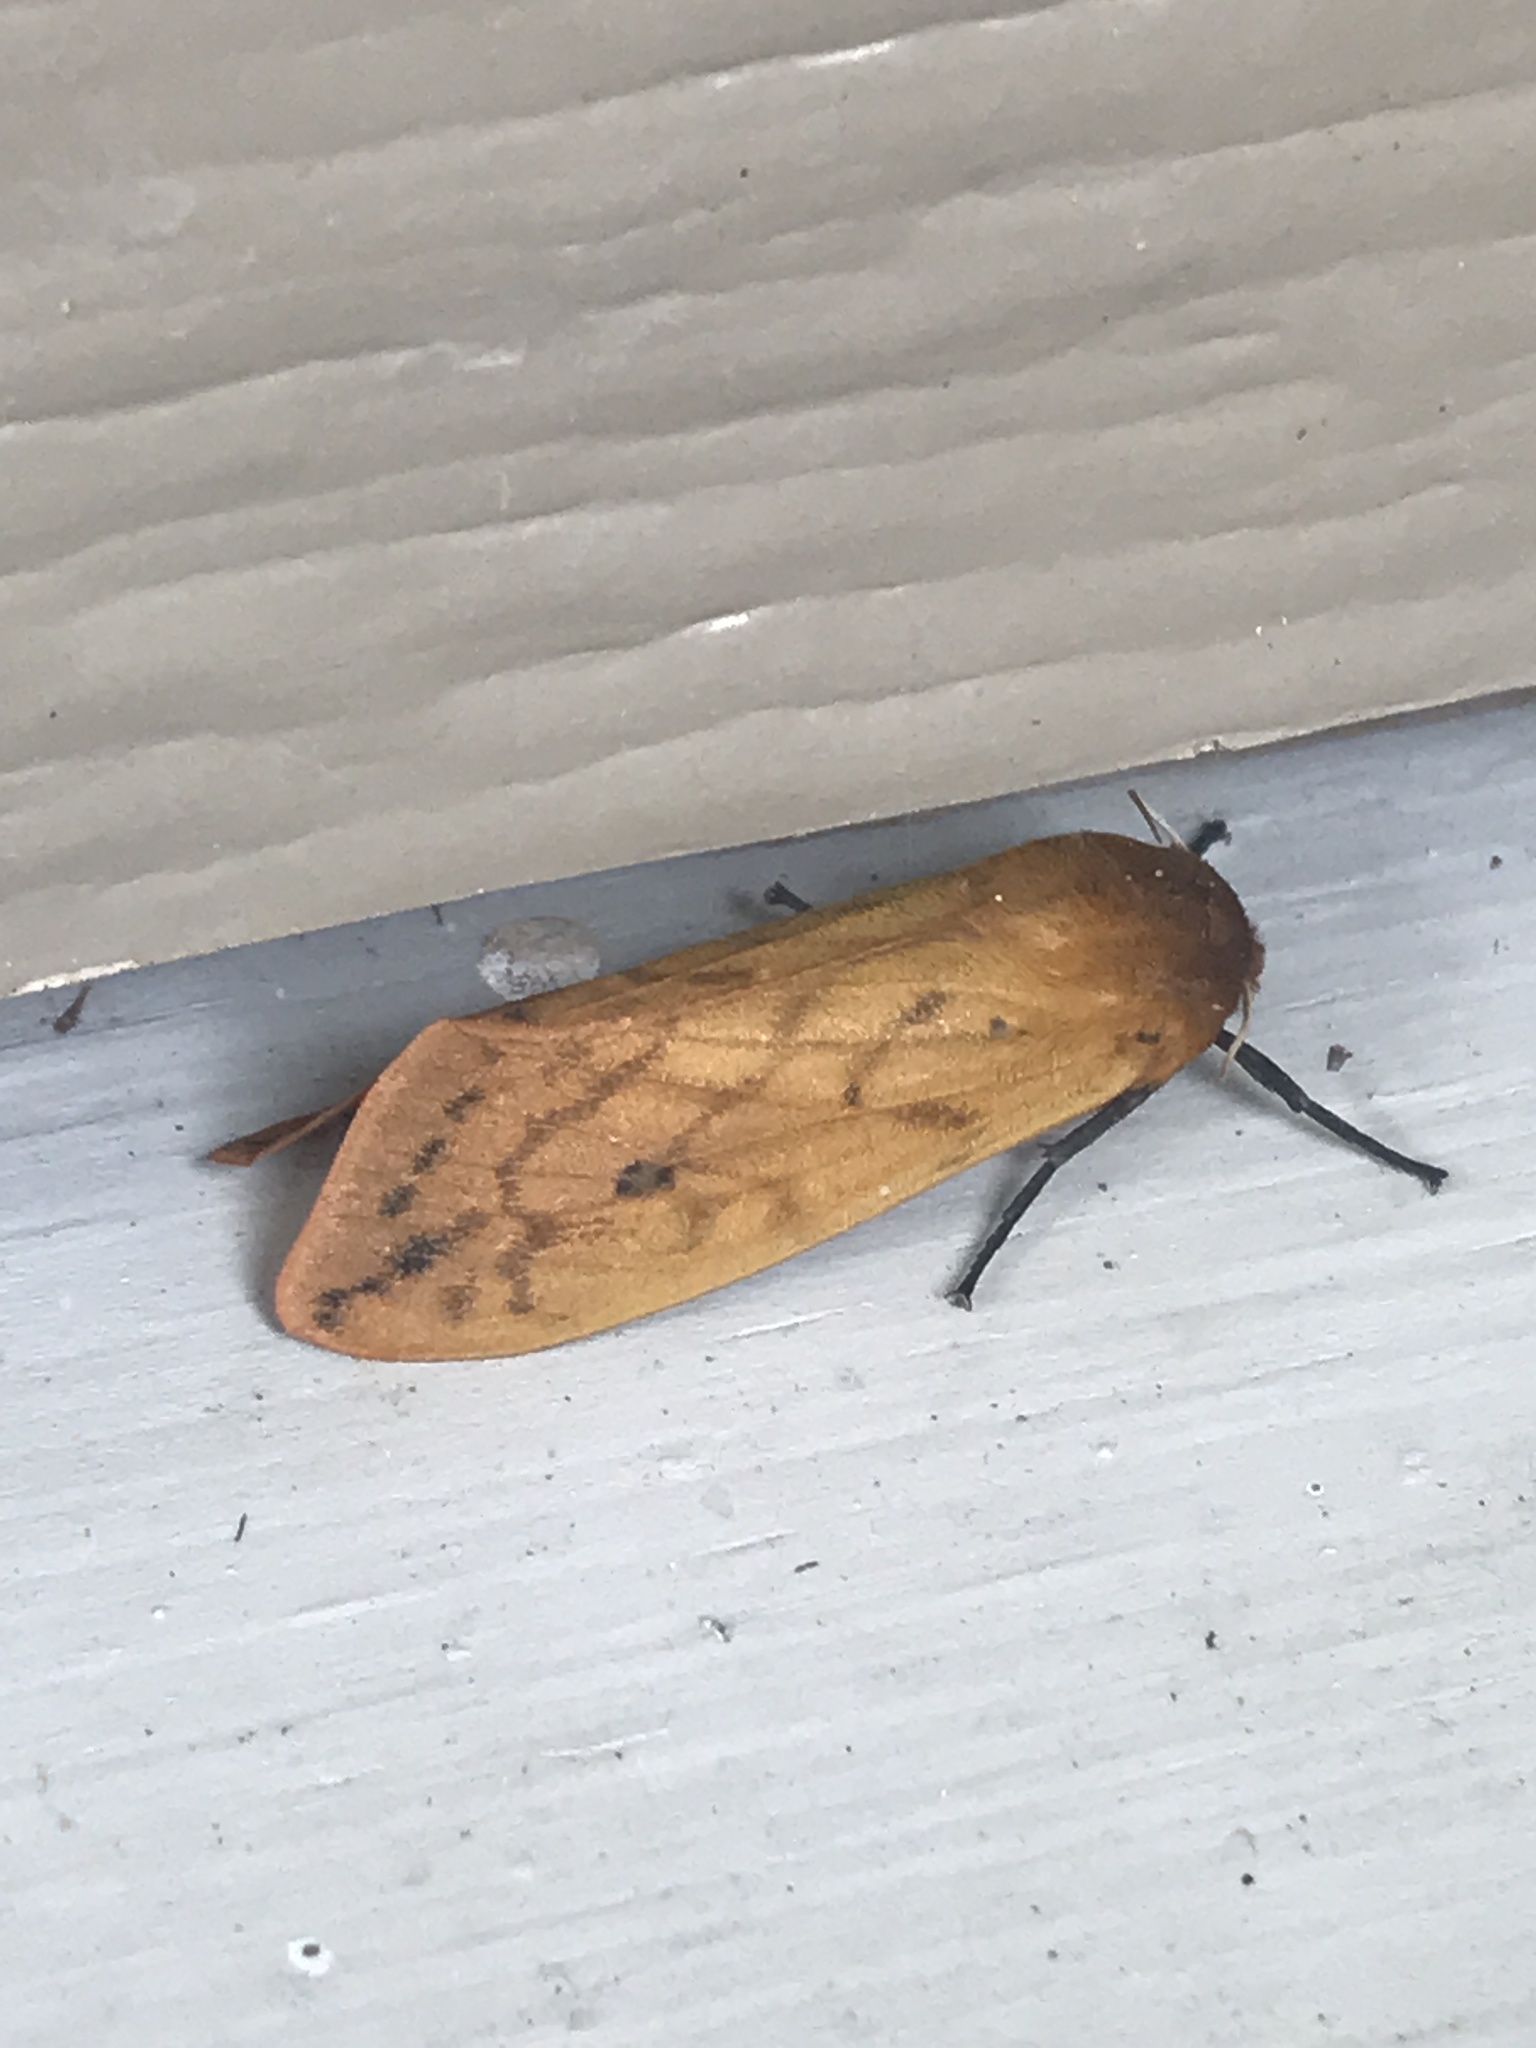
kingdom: Animalia
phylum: Arthropoda
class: Insecta
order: Lepidoptera
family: Erebidae
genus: Pyrrharctia
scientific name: Pyrrharctia isabella
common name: Isabella tiger moth
